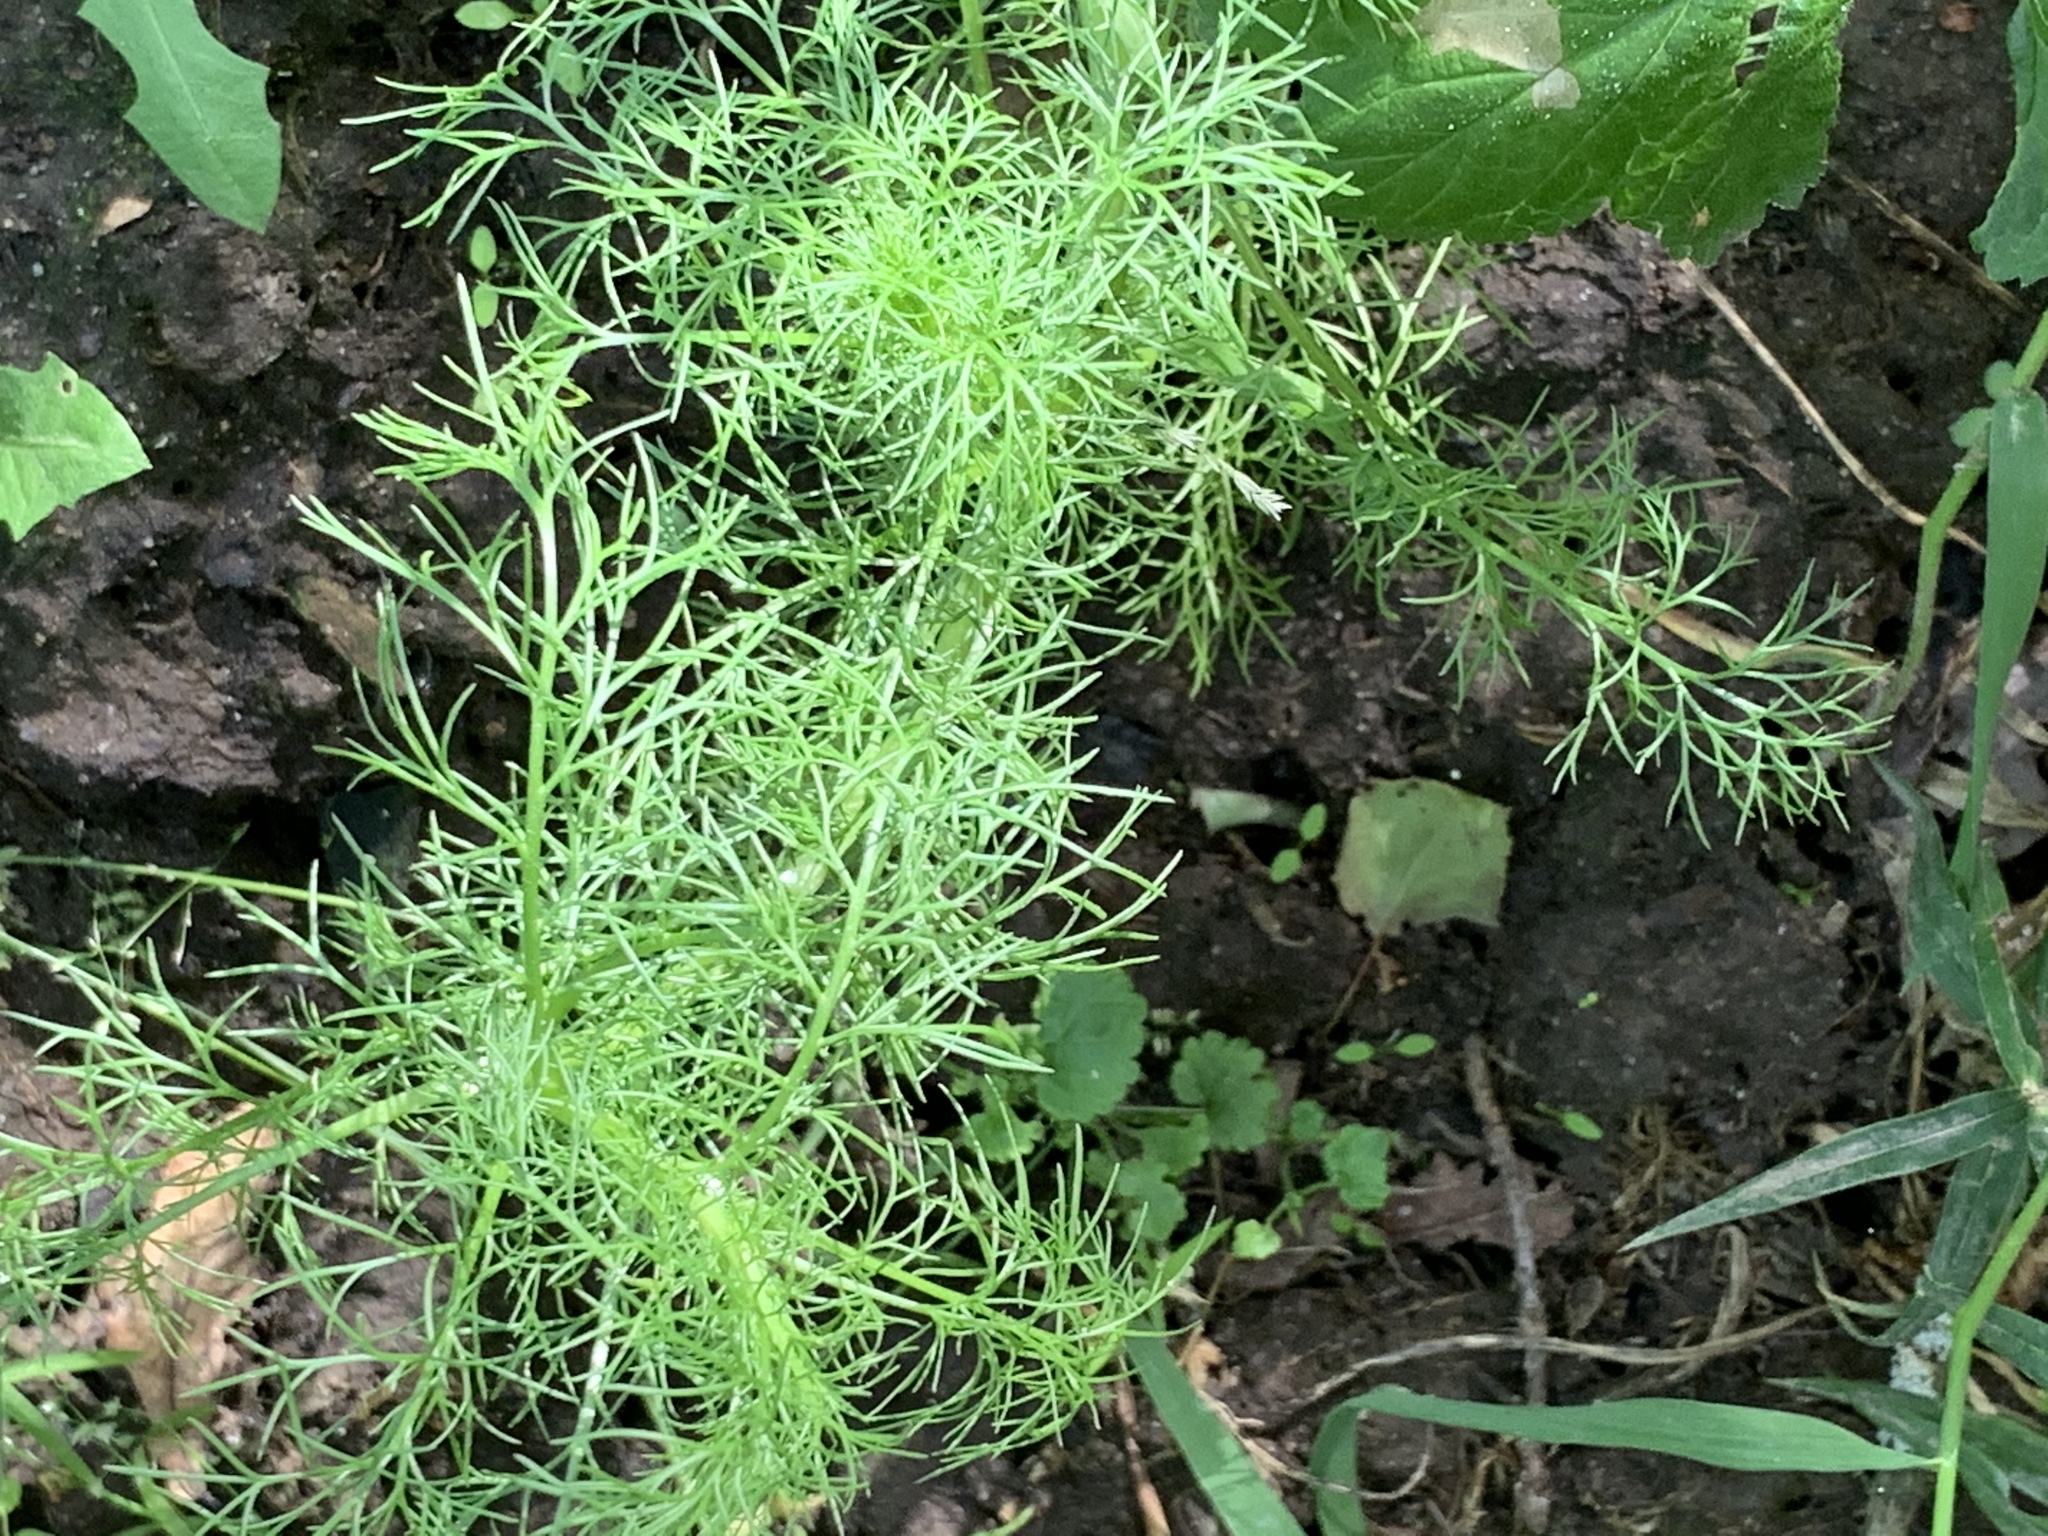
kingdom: Plantae
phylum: Tracheophyta
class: Magnoliopsida
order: Asterales
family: Asteraceae
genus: Tripleurospermum
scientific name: Tripleurospermum inodorum
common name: Scentless mayweed
